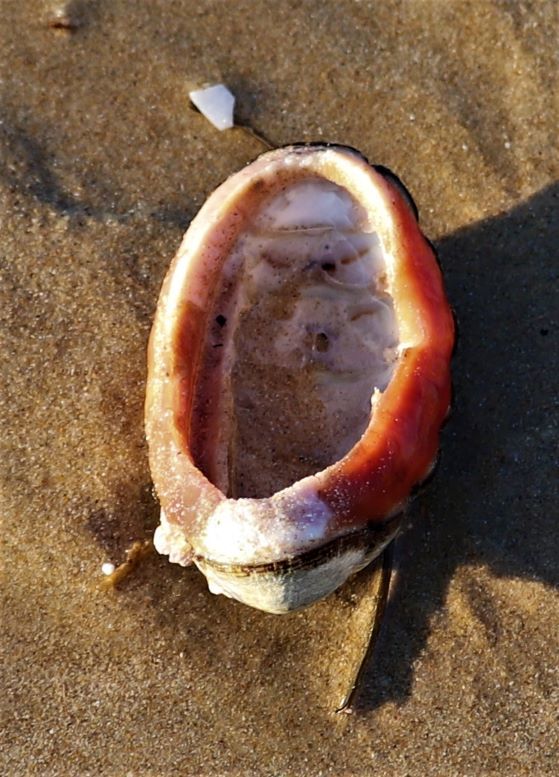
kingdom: Animalia
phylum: Mollusca
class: Polyplacophora
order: Chitonida
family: Chaetopleuridae
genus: Dinoplax
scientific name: Dinoplax gigas
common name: Armadillo
